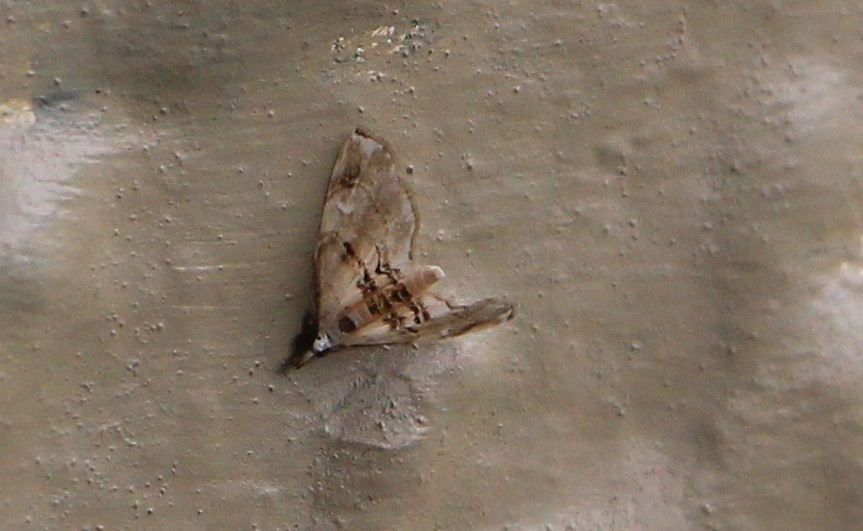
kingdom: Animalia
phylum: Arthropoda
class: Insecta
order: Lepidoptera
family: Crambidae
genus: Trichophysetis
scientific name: Trichophysetis
